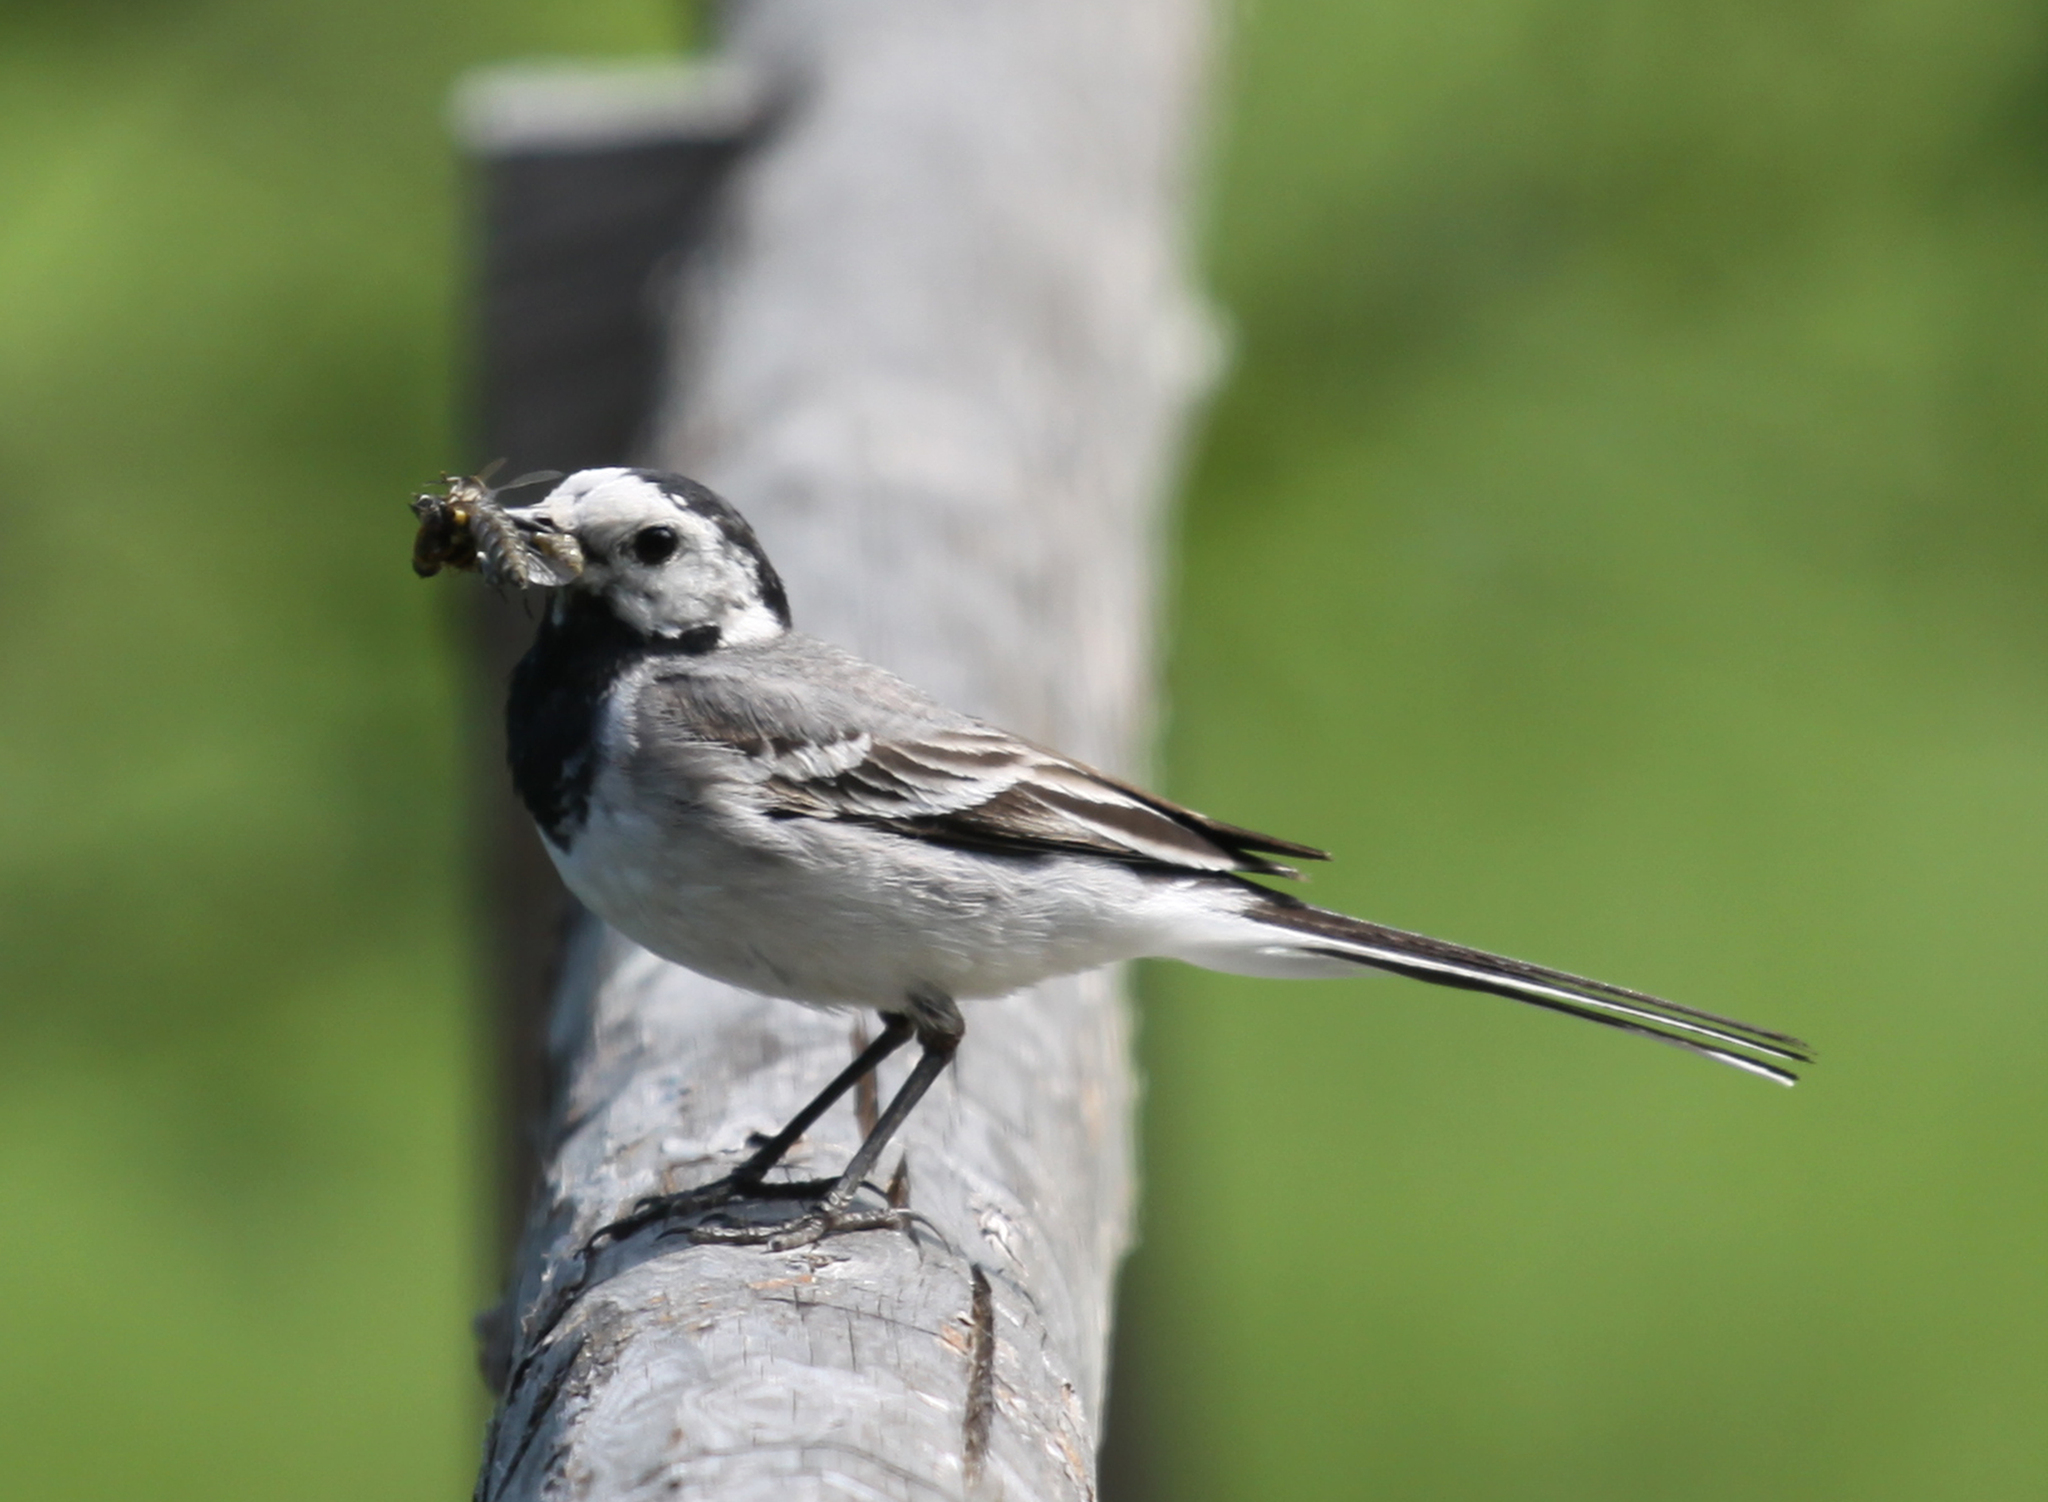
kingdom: Animalia
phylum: Chordata
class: Aves
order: Passeriformes
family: Motacillidae
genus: Motacilla
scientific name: Motacilla alba
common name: White wagtail
